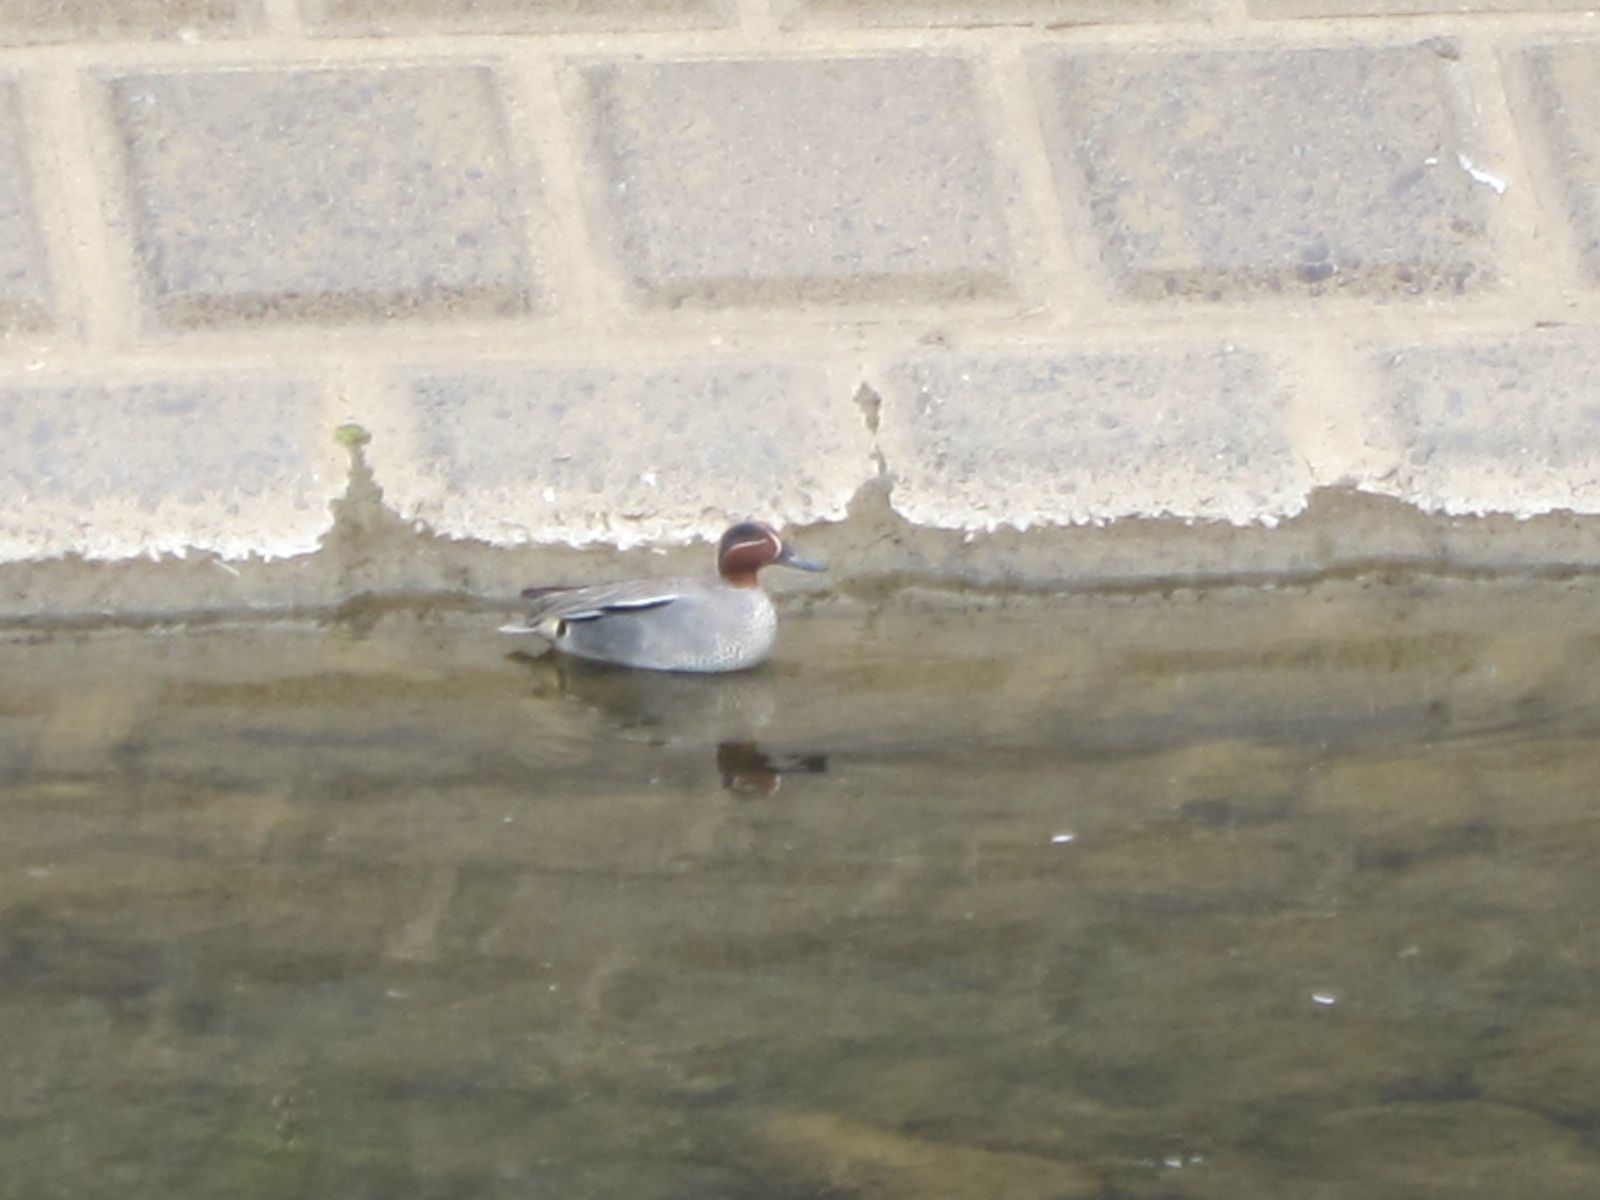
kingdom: Animalia
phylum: Chordata
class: Aves
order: Anseriformes
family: Anatidae
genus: Anas
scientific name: Anas crecca
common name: Eurasian teal
